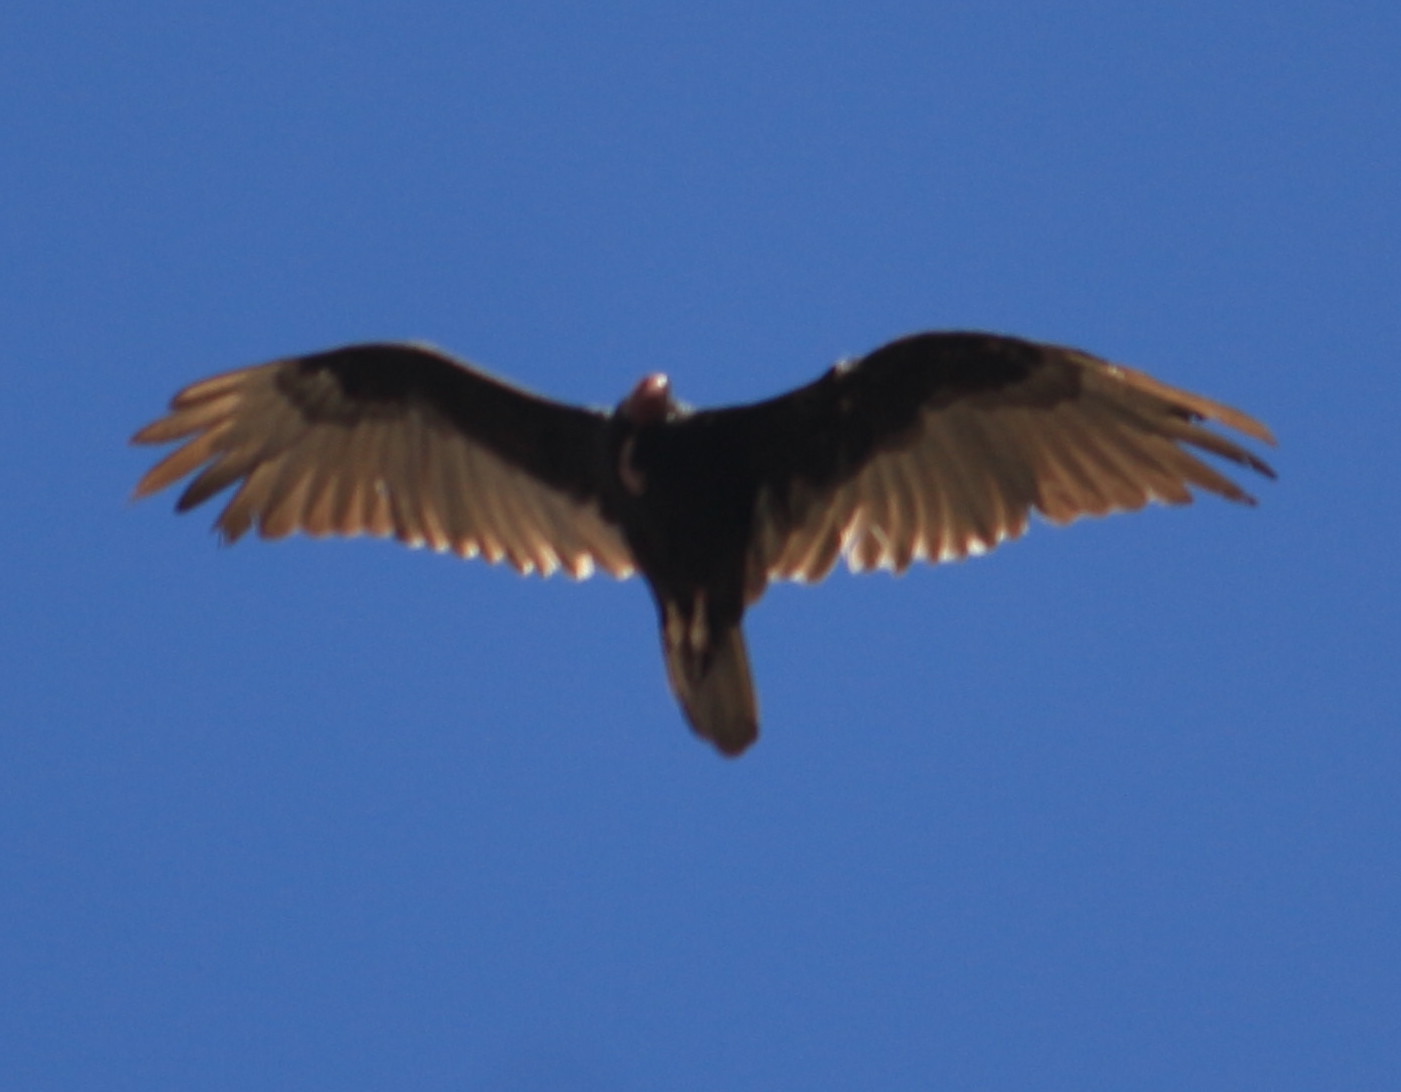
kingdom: Animalia
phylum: Chordata
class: Aves
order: Accipitriformes
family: Cathartidae
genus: Cathartes
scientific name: Cathartes aura
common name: Turkey vulture
